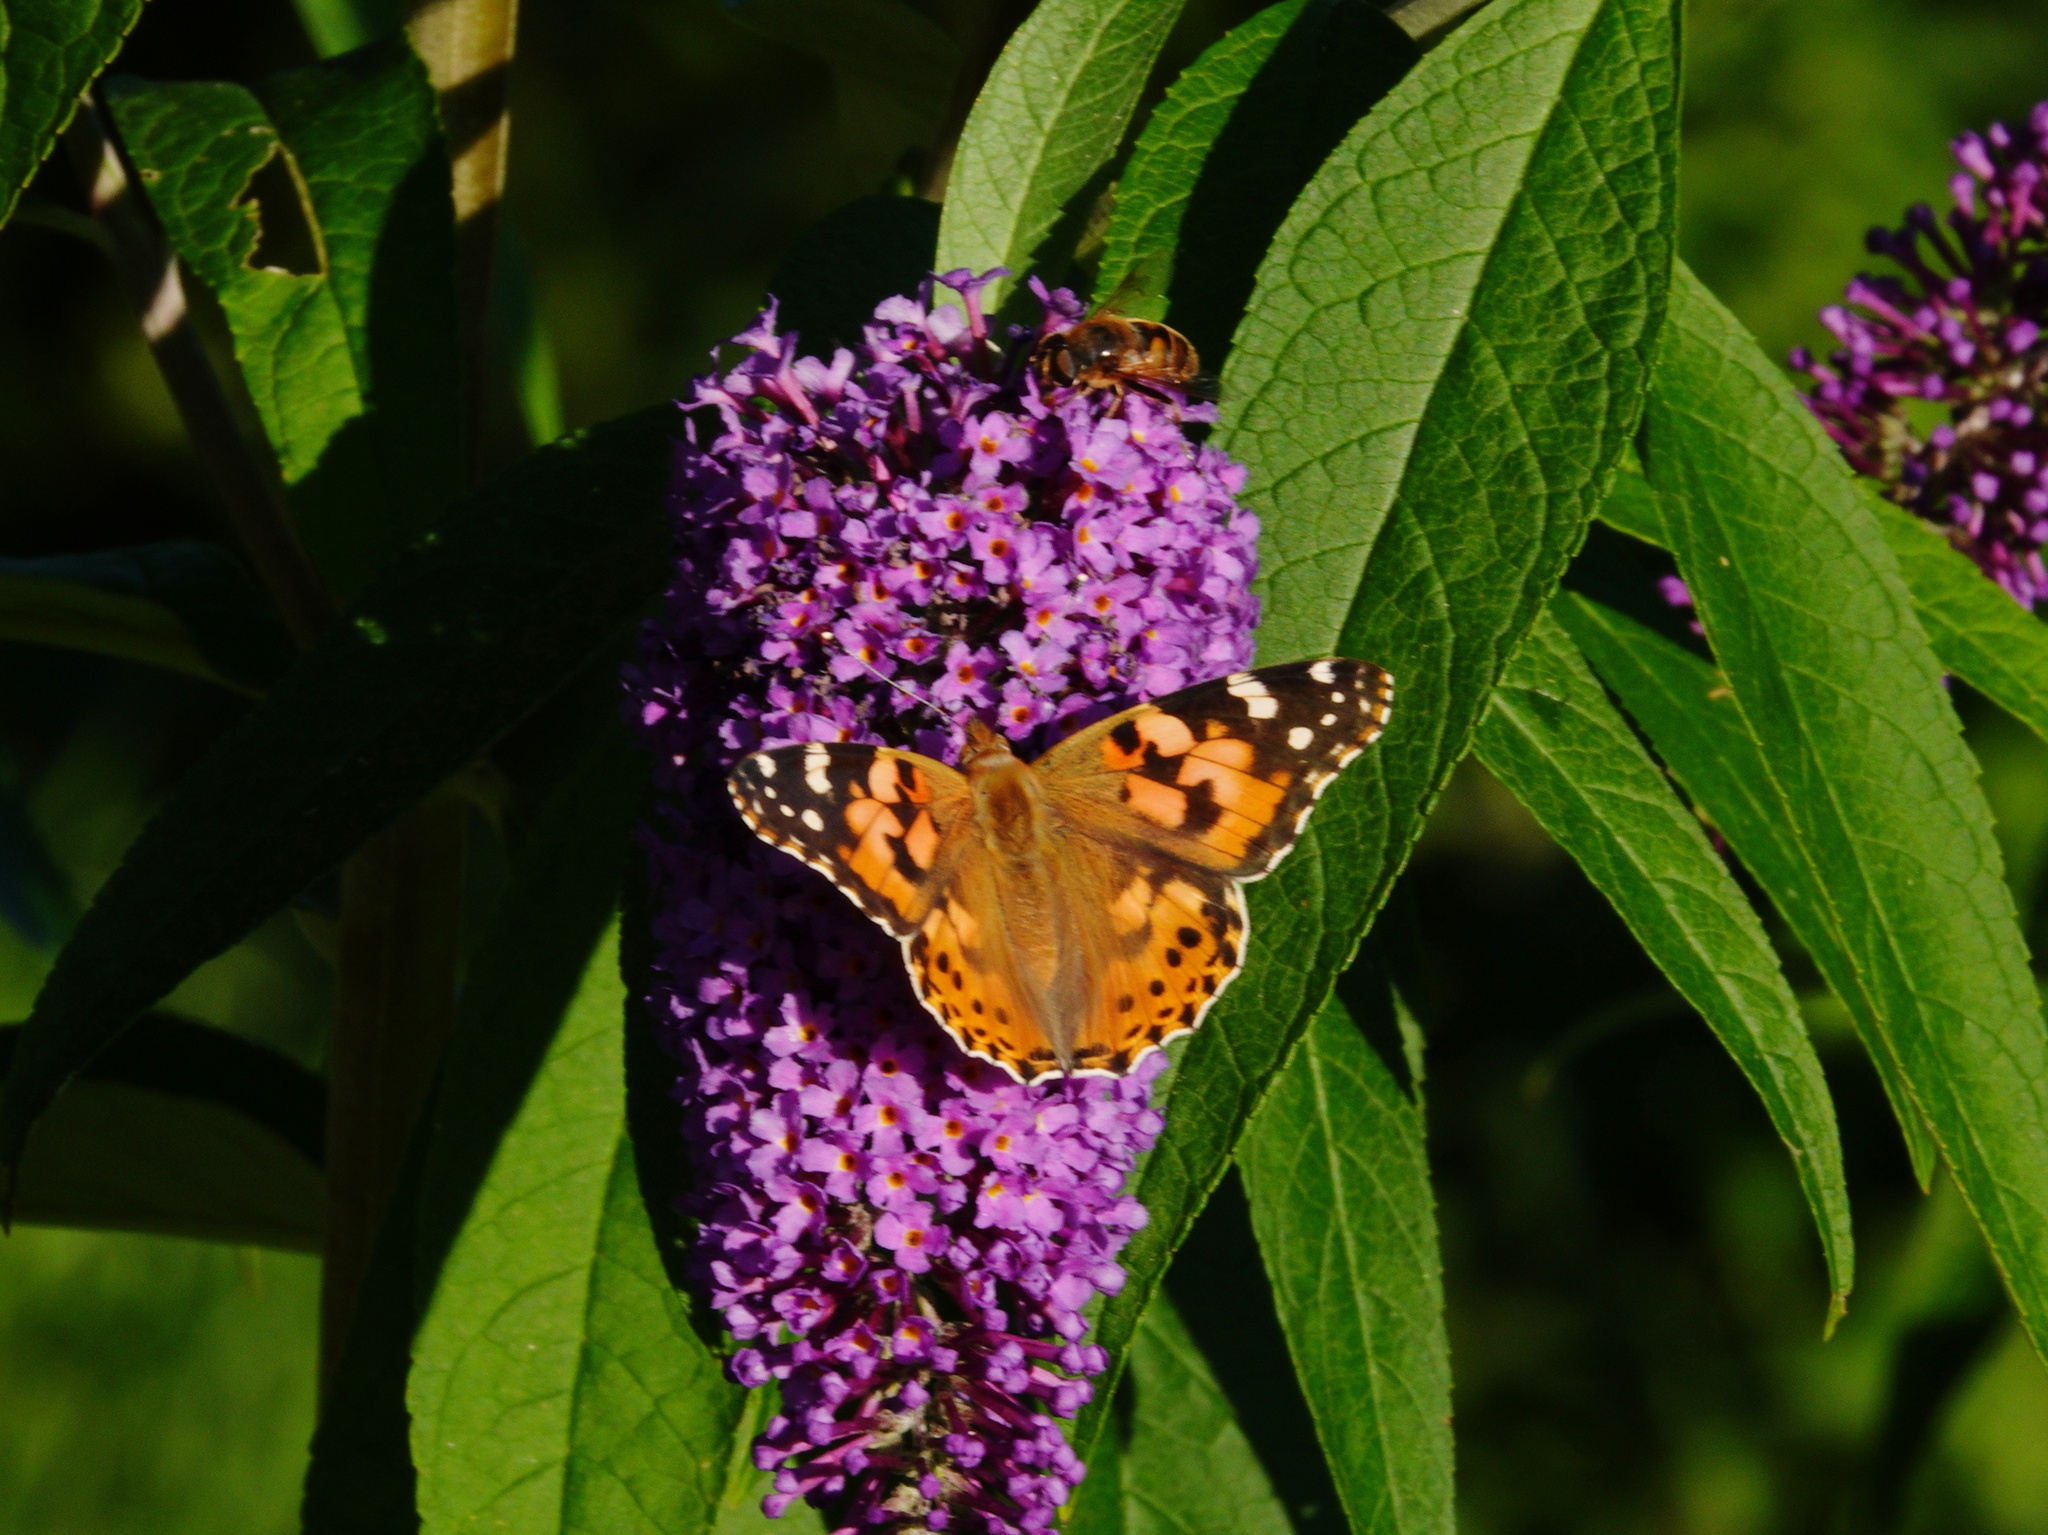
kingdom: Animalia
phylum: Arthropoda
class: Insecta
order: Lepidoptera
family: Nymphalidae
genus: Vanessa
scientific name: Vanessa cardui
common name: Painted lady
